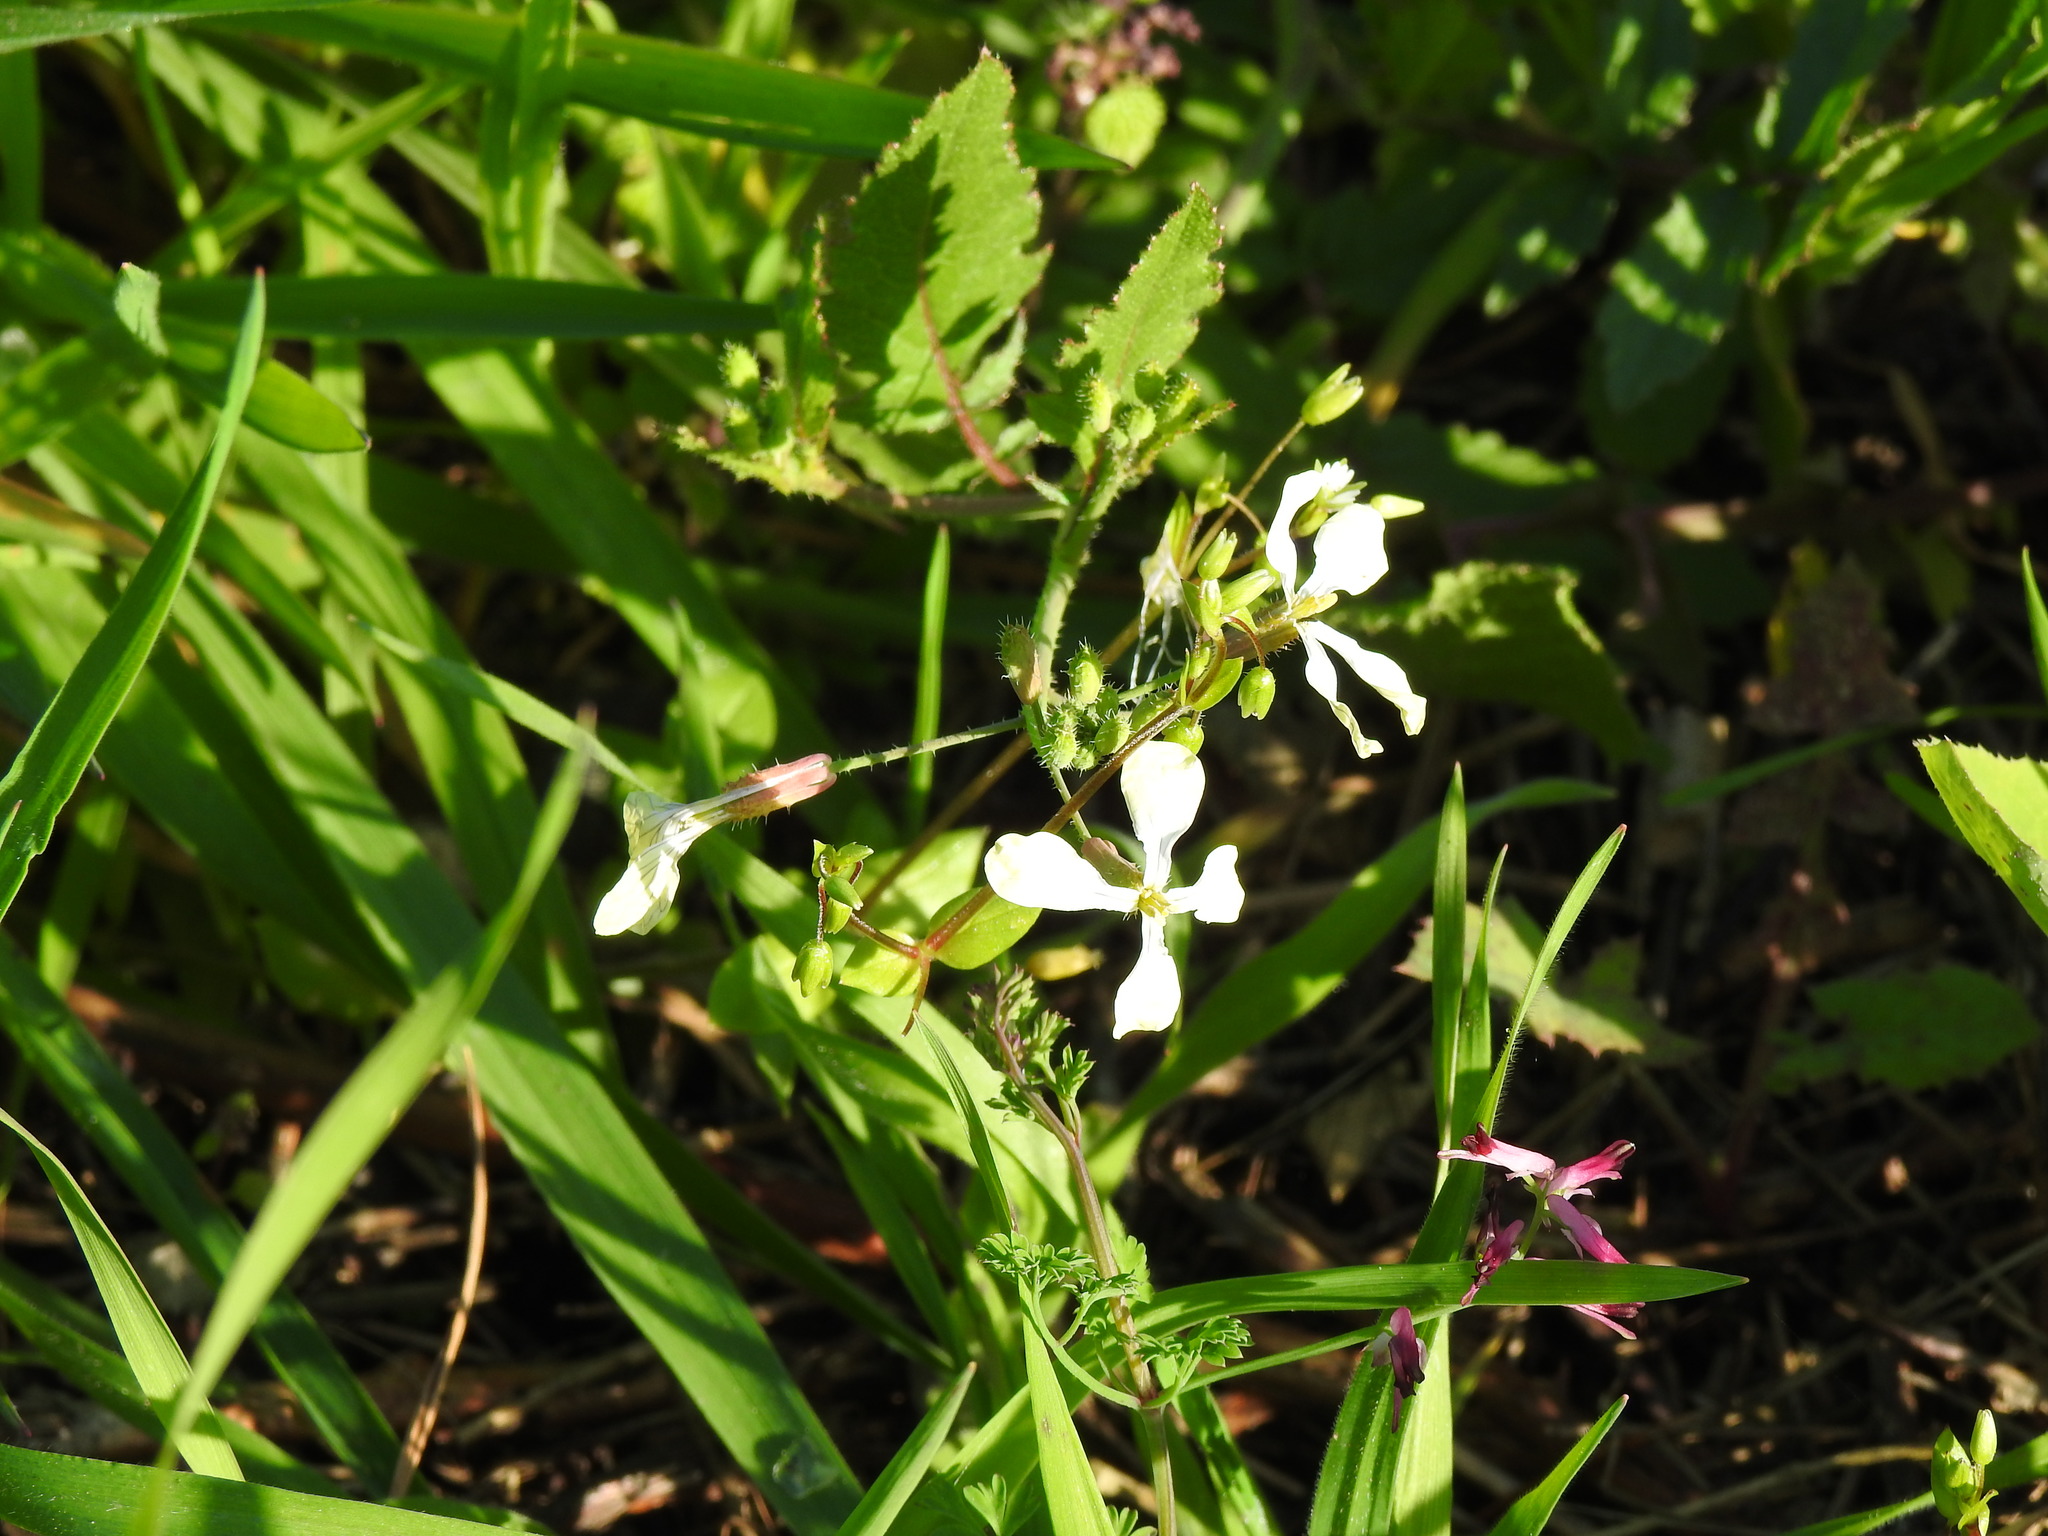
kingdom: Plantae
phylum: Tracheophyta
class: Magnoliopsida
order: Brassicales
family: Brassicaceae
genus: Raphanus
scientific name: Raphanus raphanistrum
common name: Wild radish
